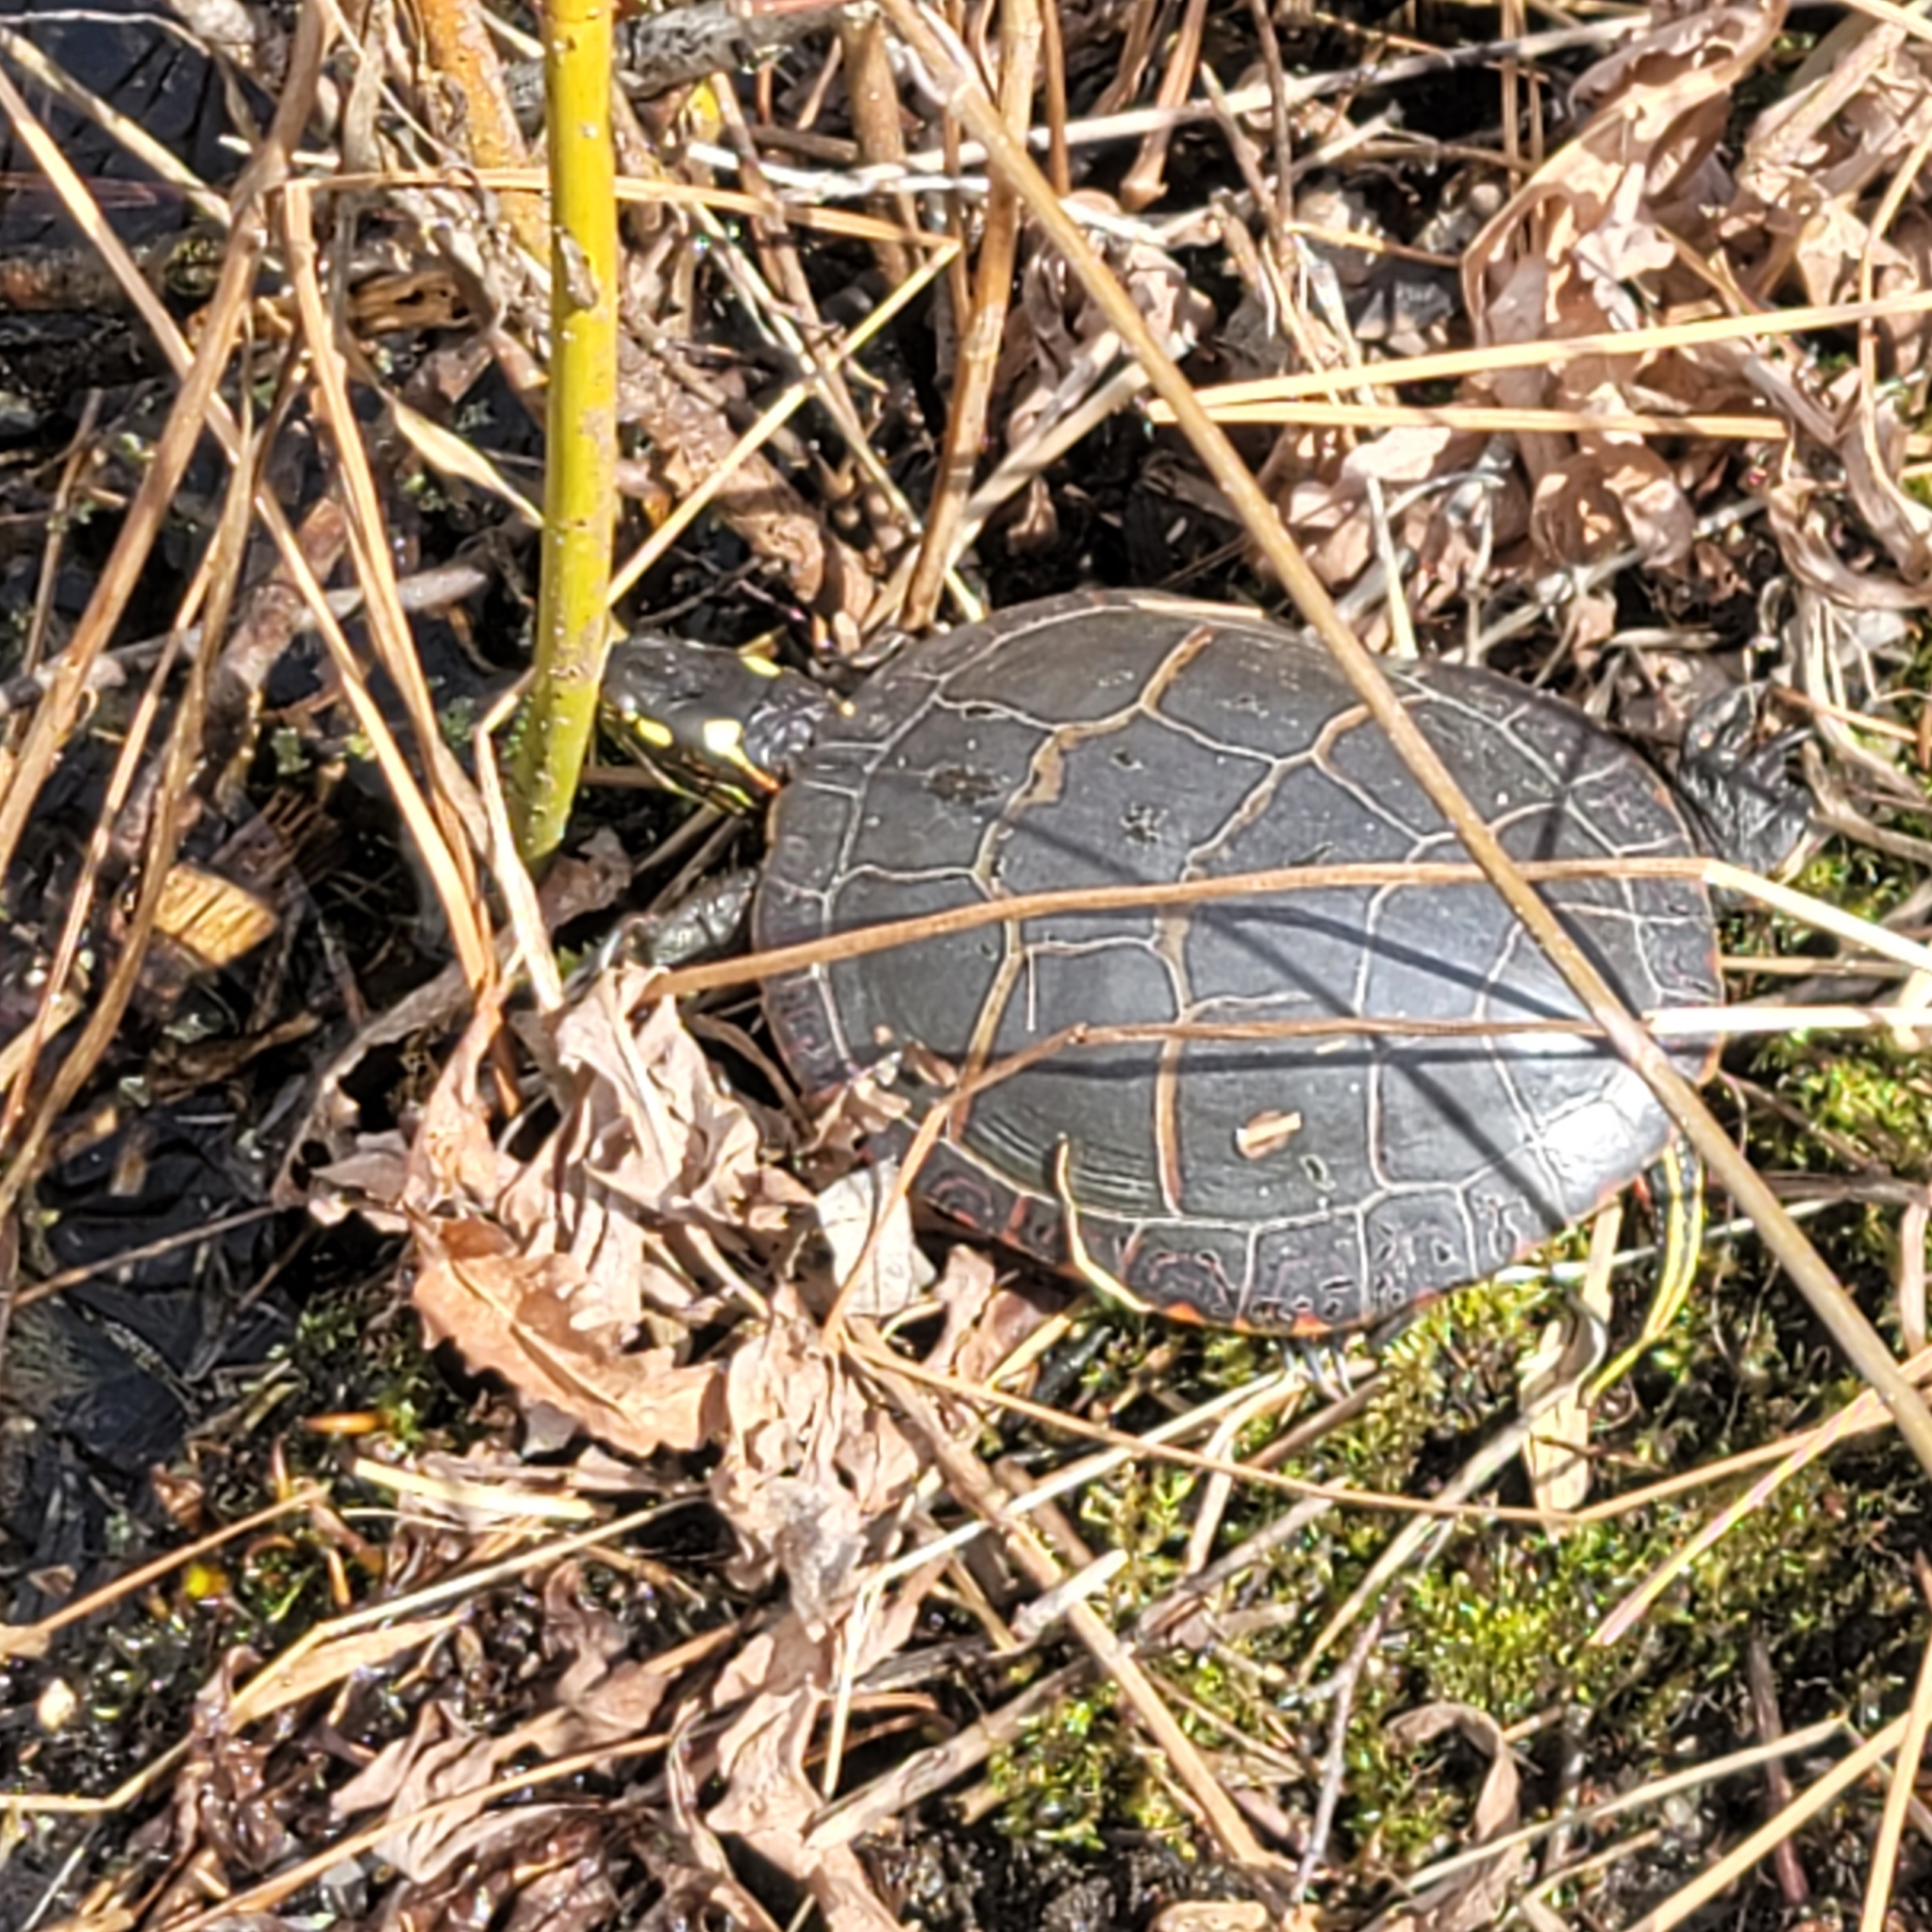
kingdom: Animalia
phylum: Chordata
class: Testudines
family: Emydidae
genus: Chrysemys
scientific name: Chrysemys picta
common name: Painted turtle
